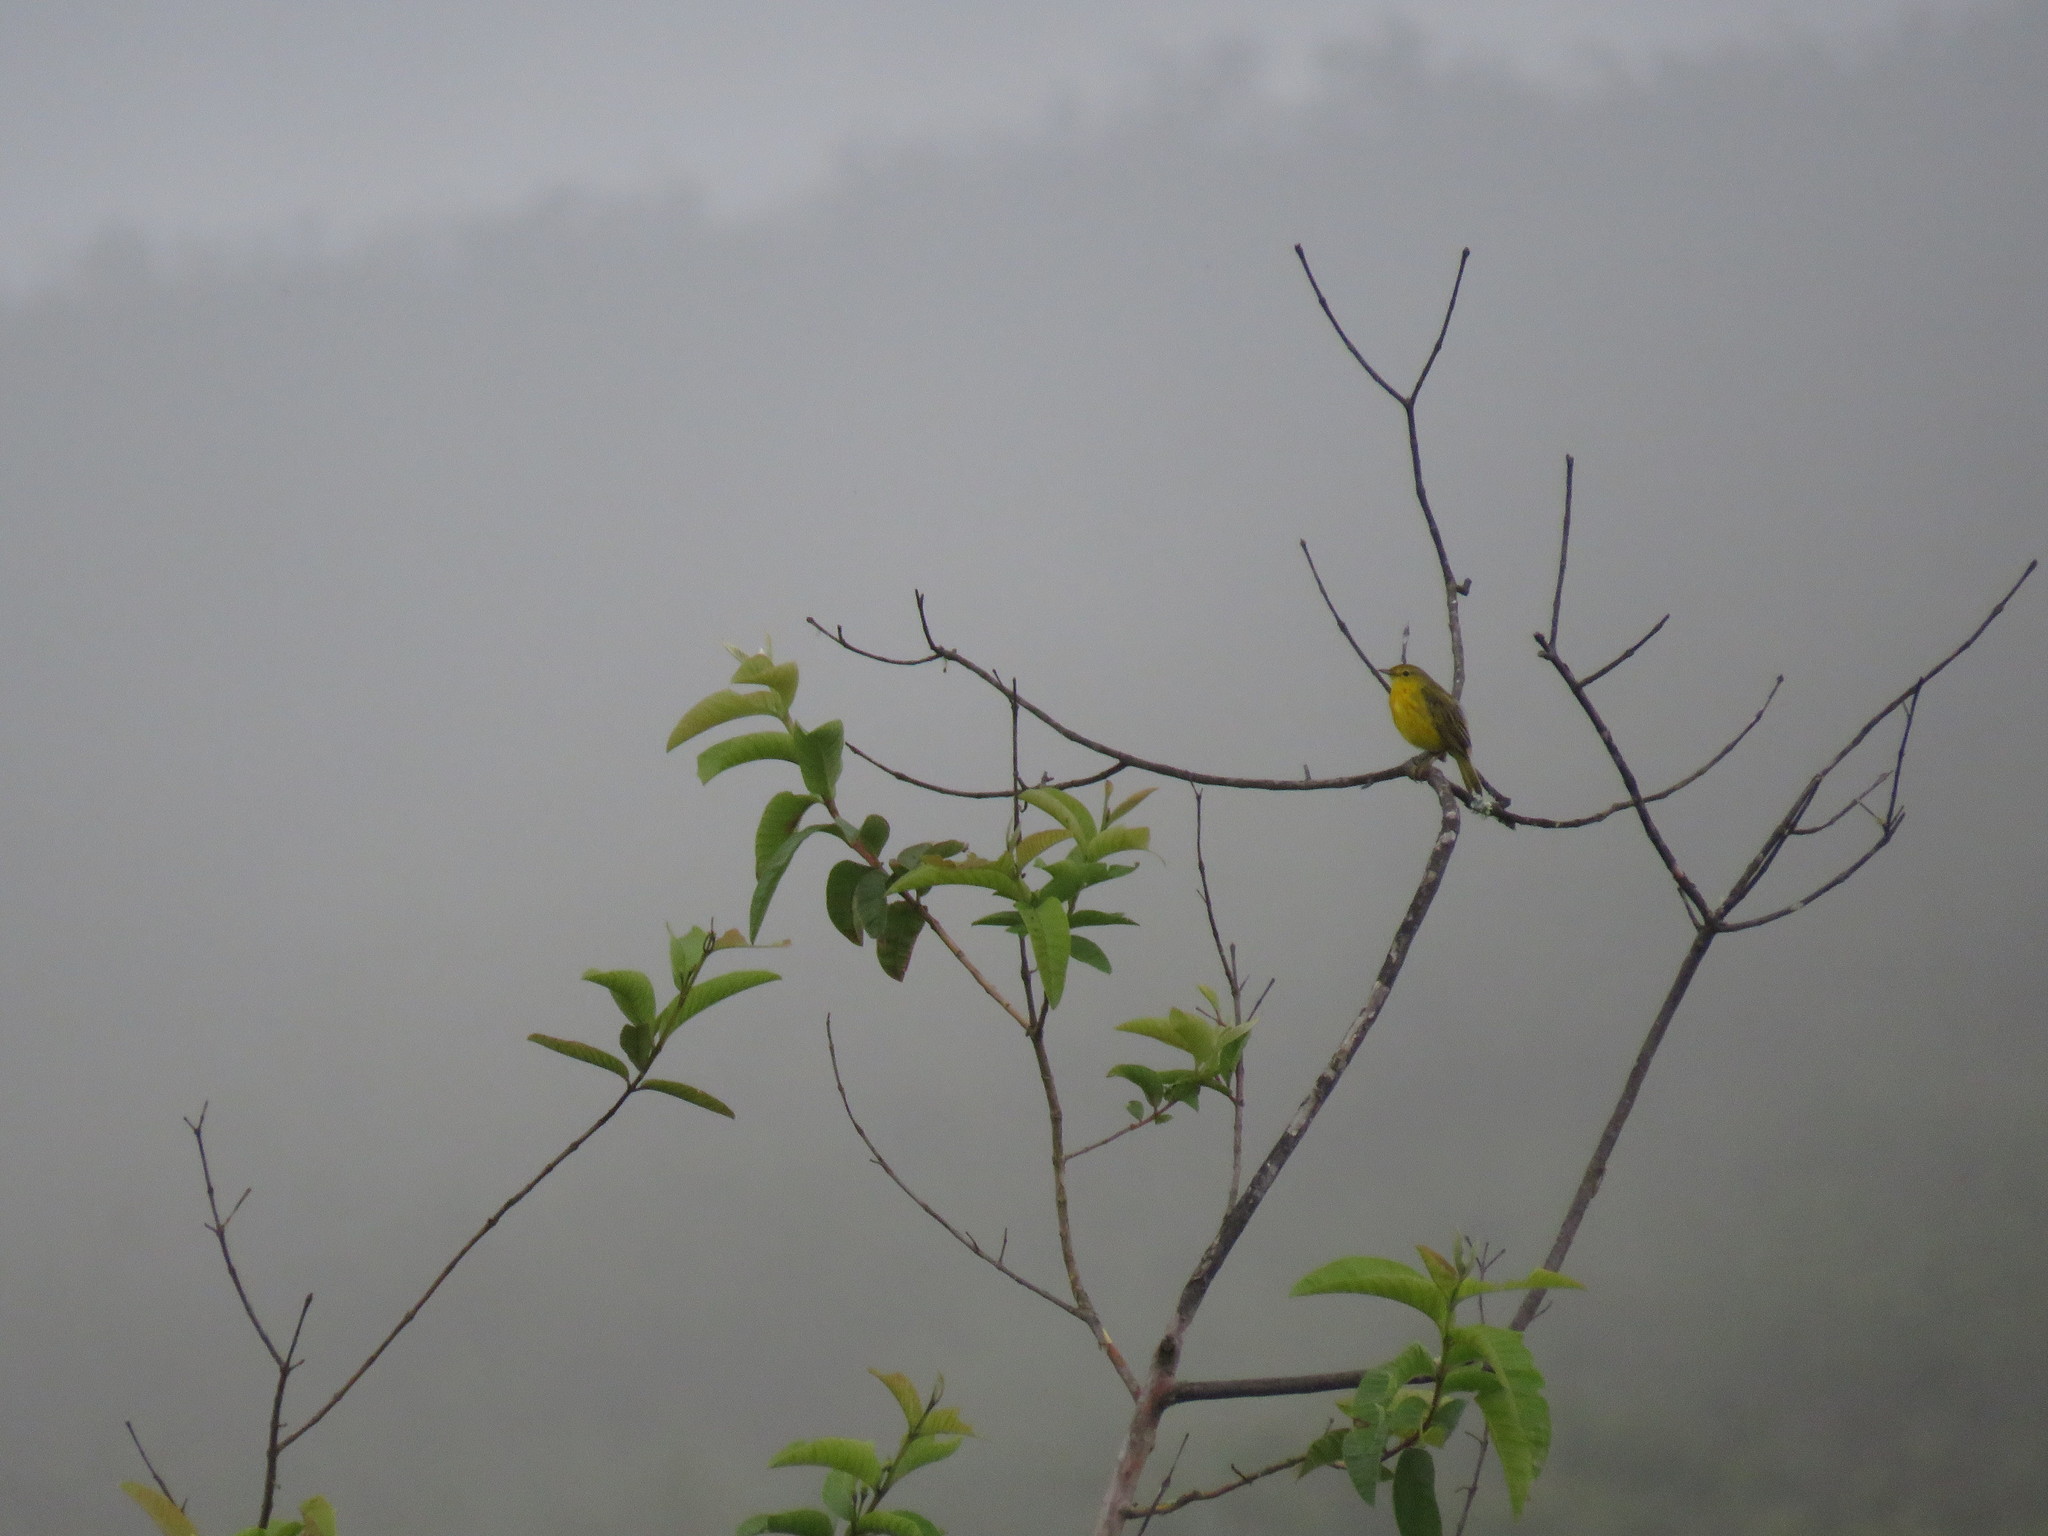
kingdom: Animalia
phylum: Chordata
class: Aves
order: Passeriformes
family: Parulidae
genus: Setophaga
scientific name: Setophaga petechia
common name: Yellow warbler
